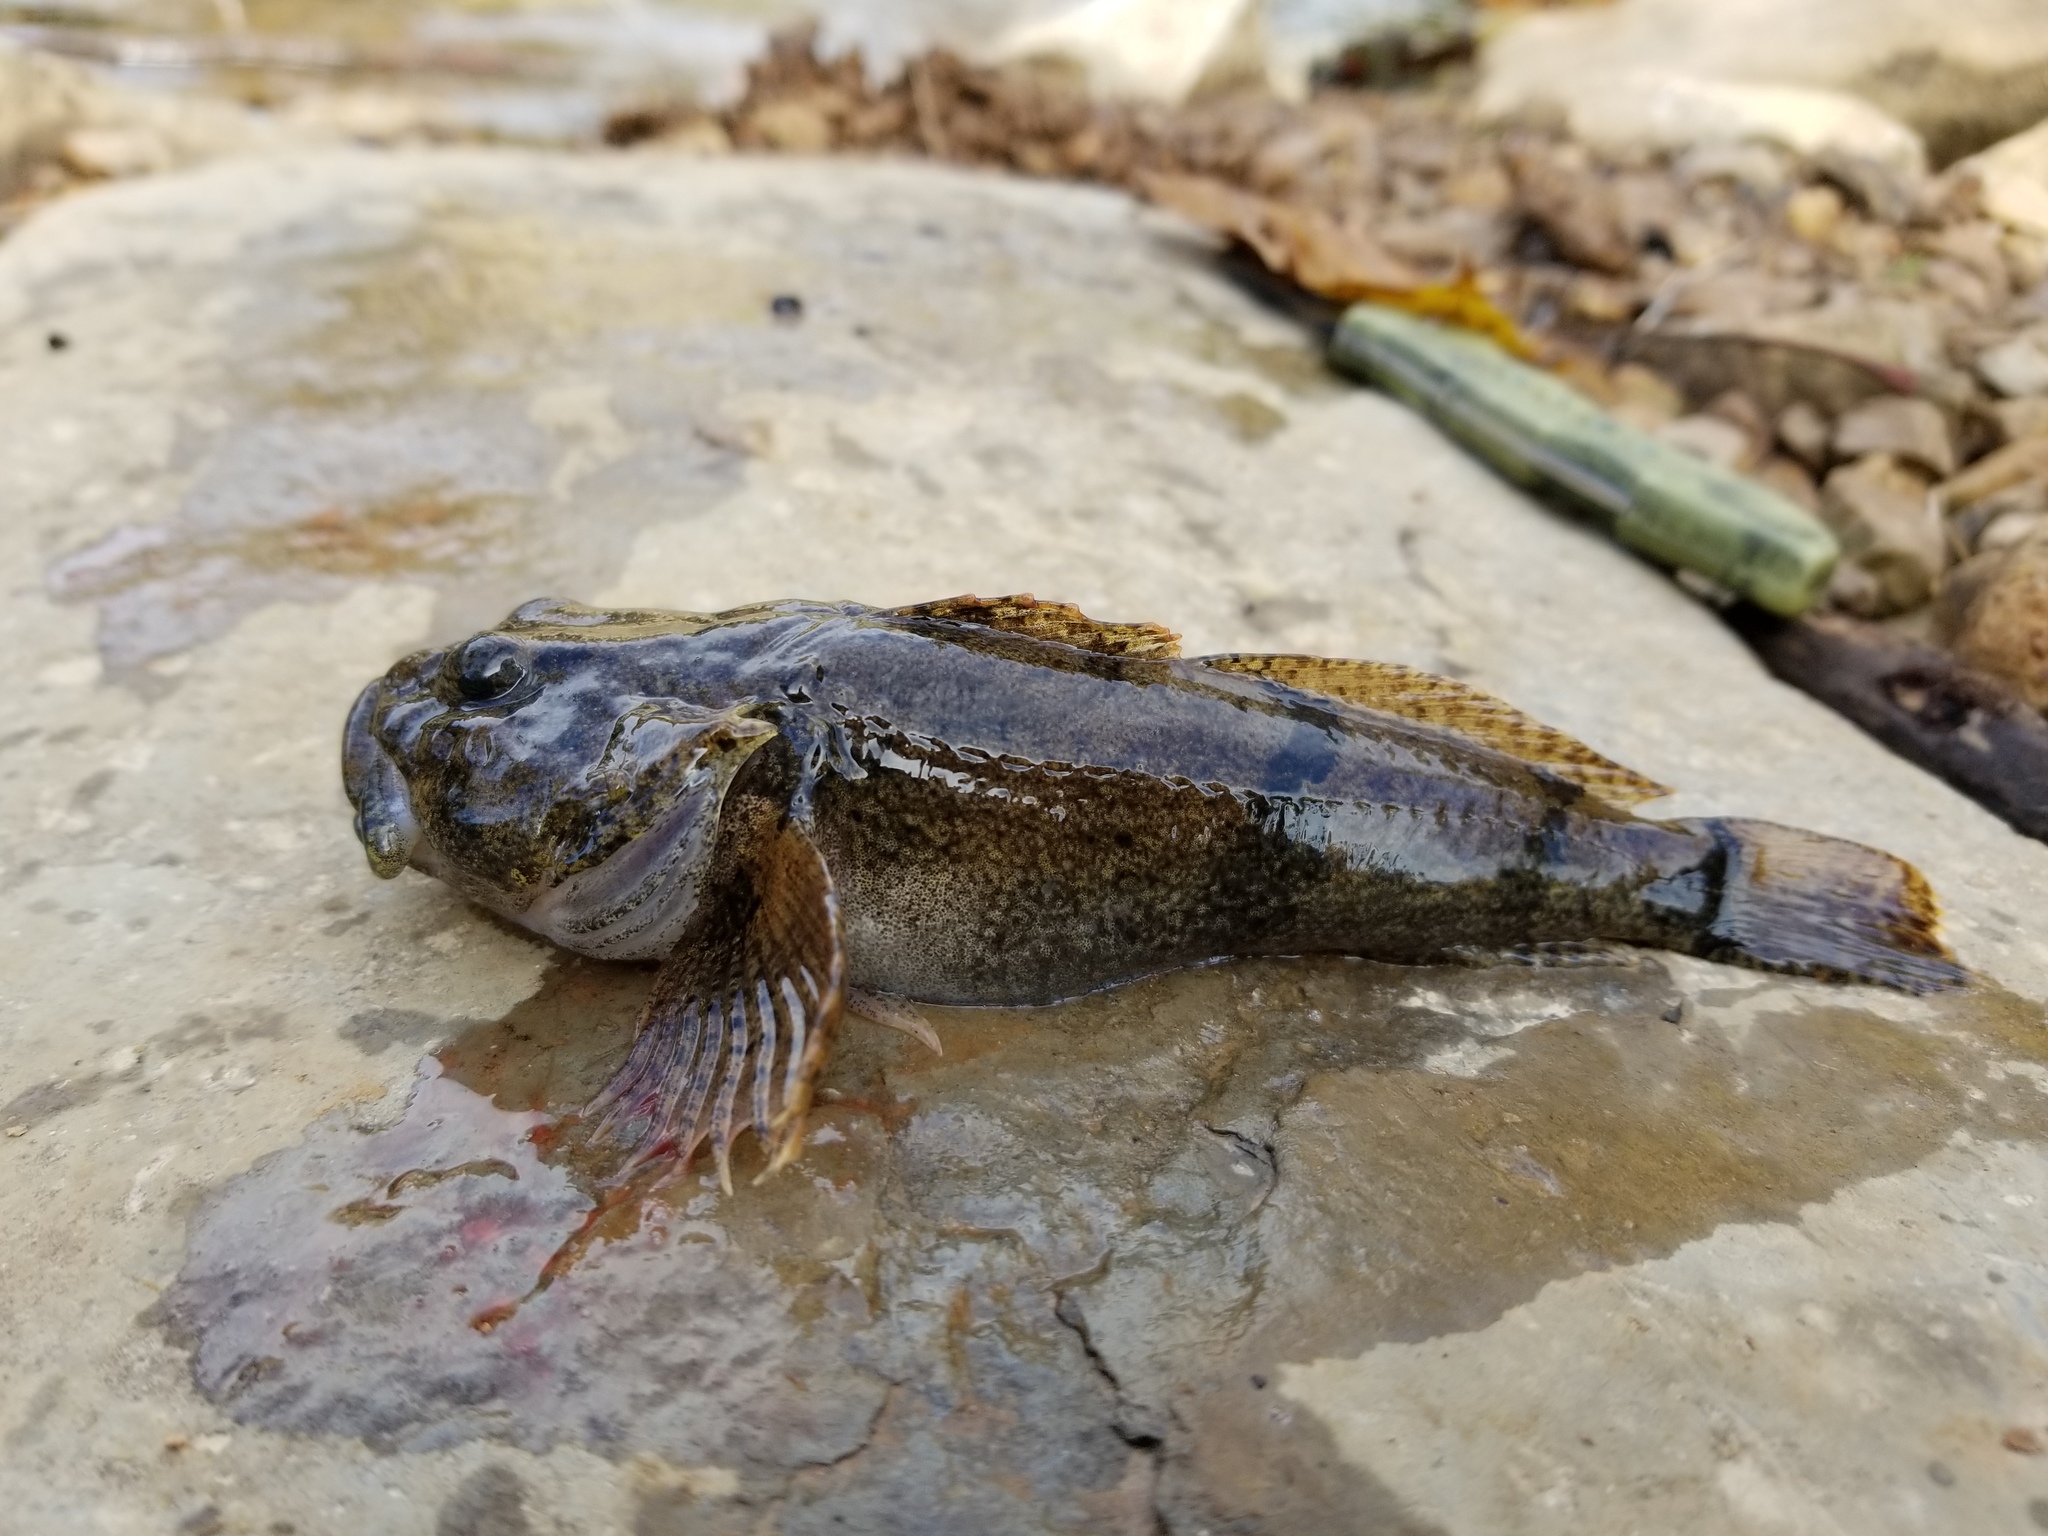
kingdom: Animalia
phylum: Chordata
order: Scorpaeniformes
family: Cottidae
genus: Cottus
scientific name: Cottus carolinae
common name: Banded sculpin
